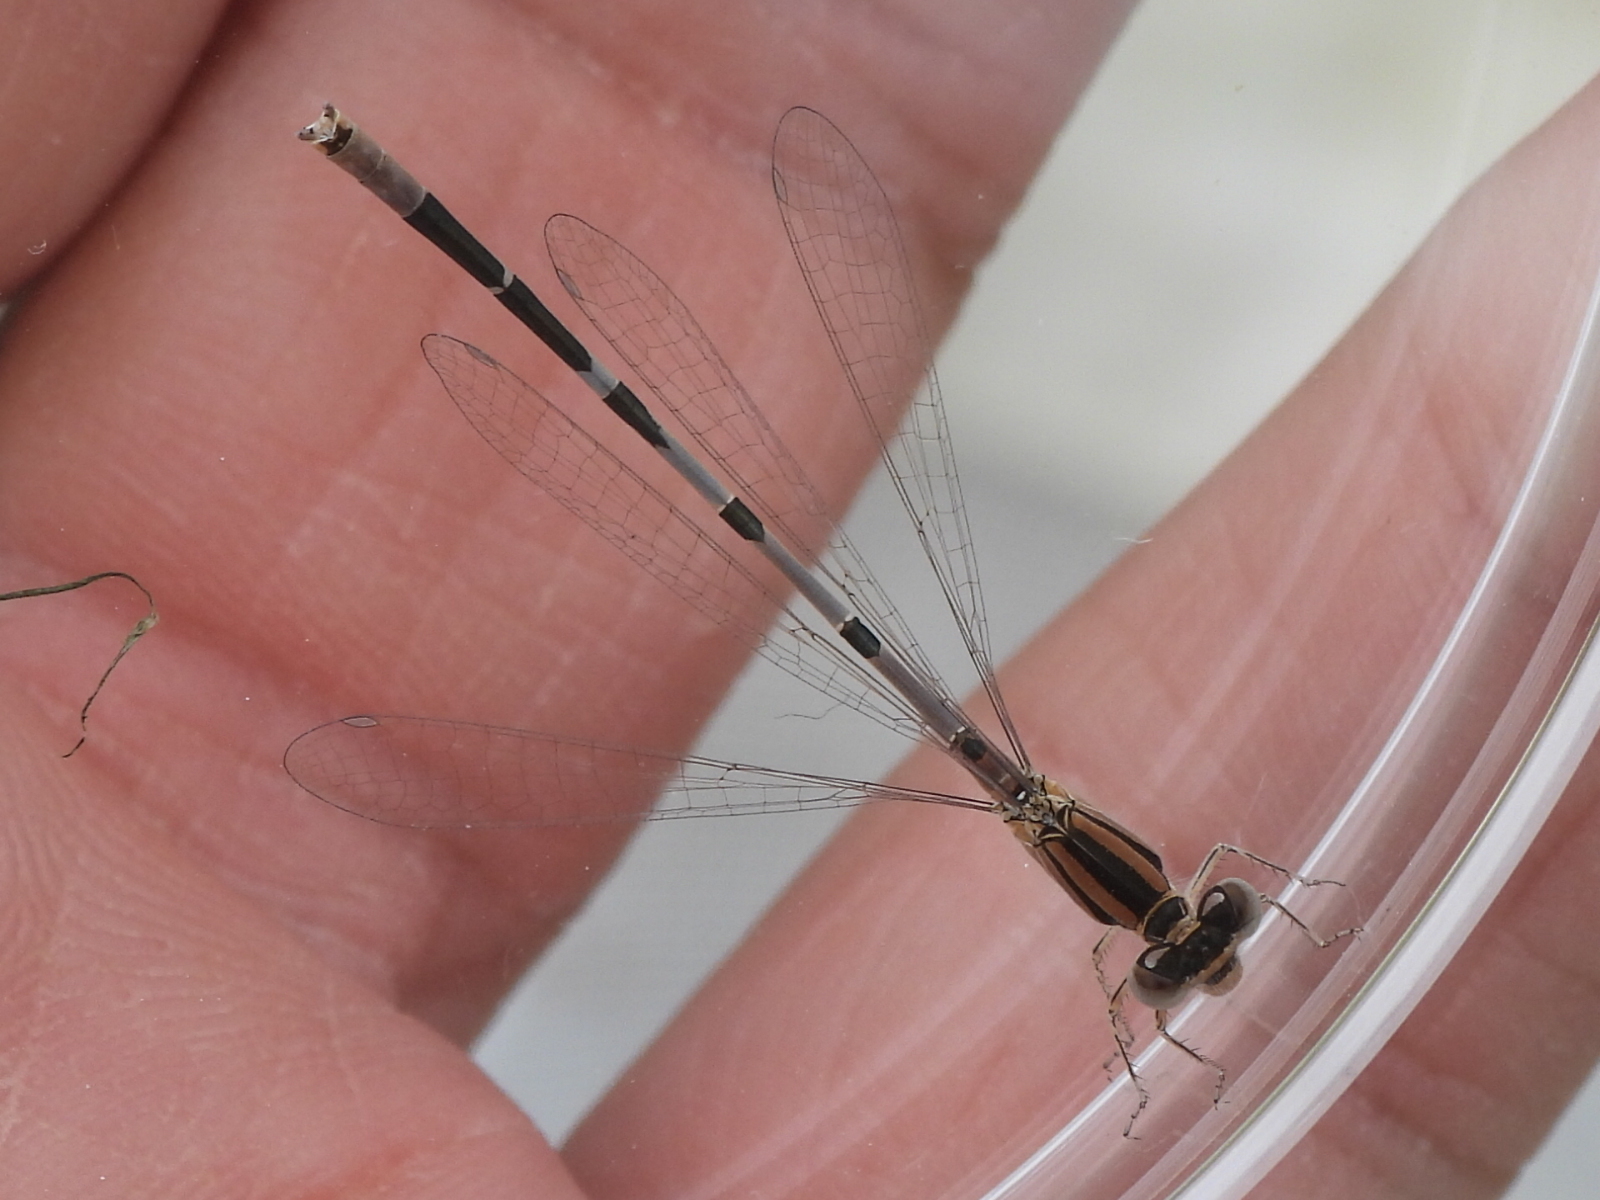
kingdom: Animalia
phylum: Arthropoda
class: Insecta
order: Odonata
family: Coenagrionidae
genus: Enallagma
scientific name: Enallagma civile
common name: Damselfly
